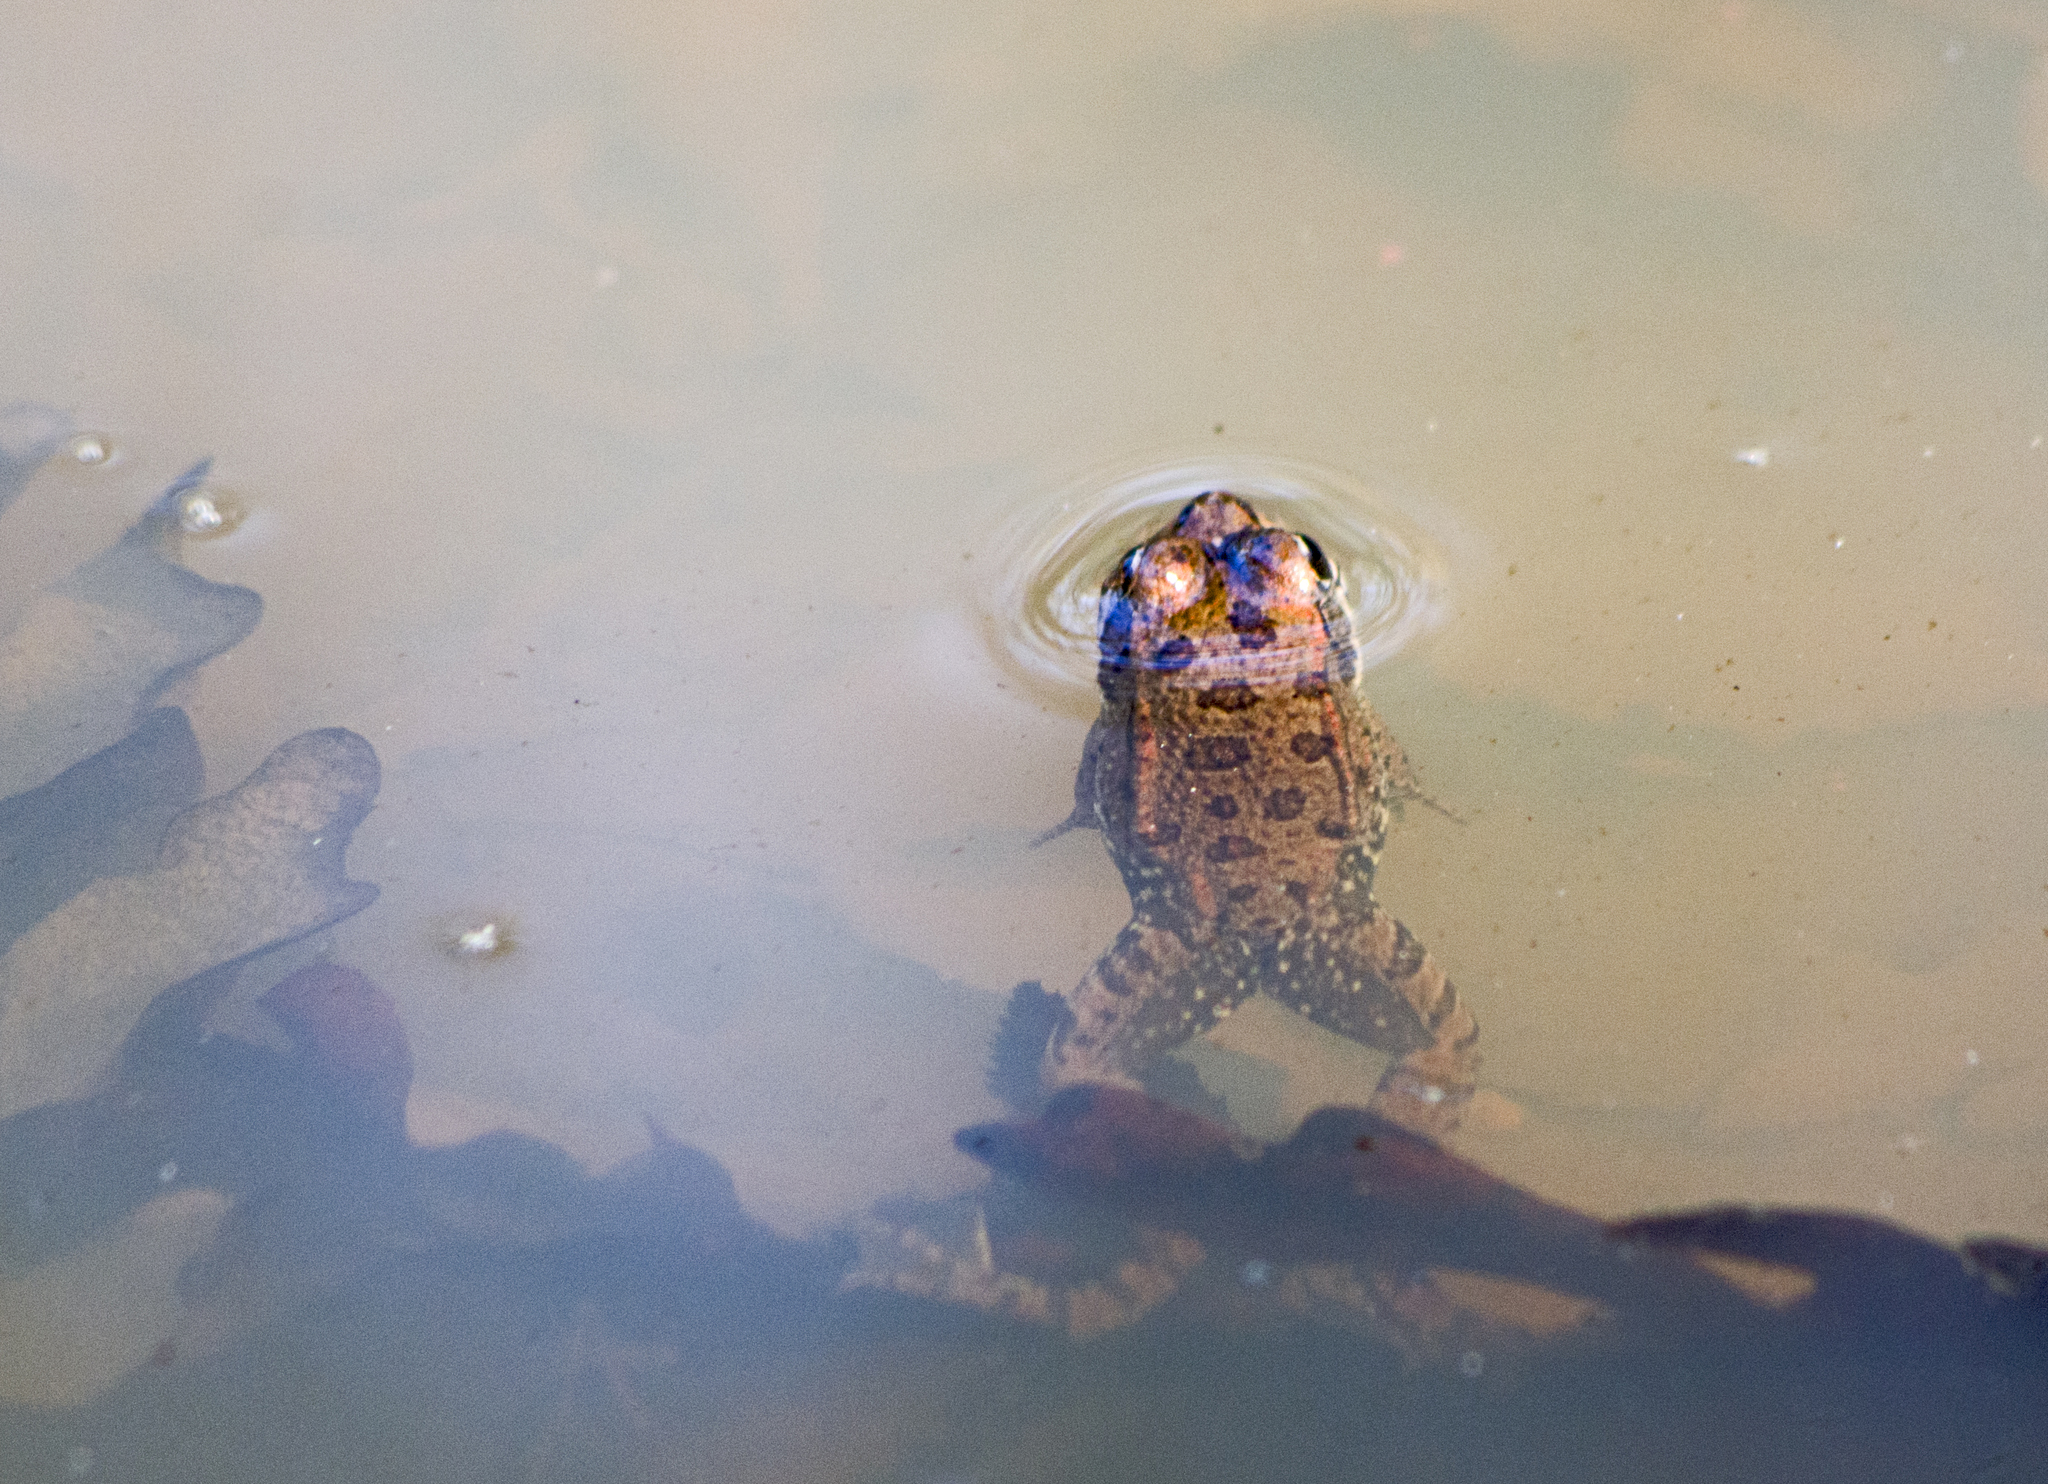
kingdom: Animalia
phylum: Chordata
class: Amphibia
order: Anura
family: Ranidae
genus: Pelophylax
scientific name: Pelophylax
